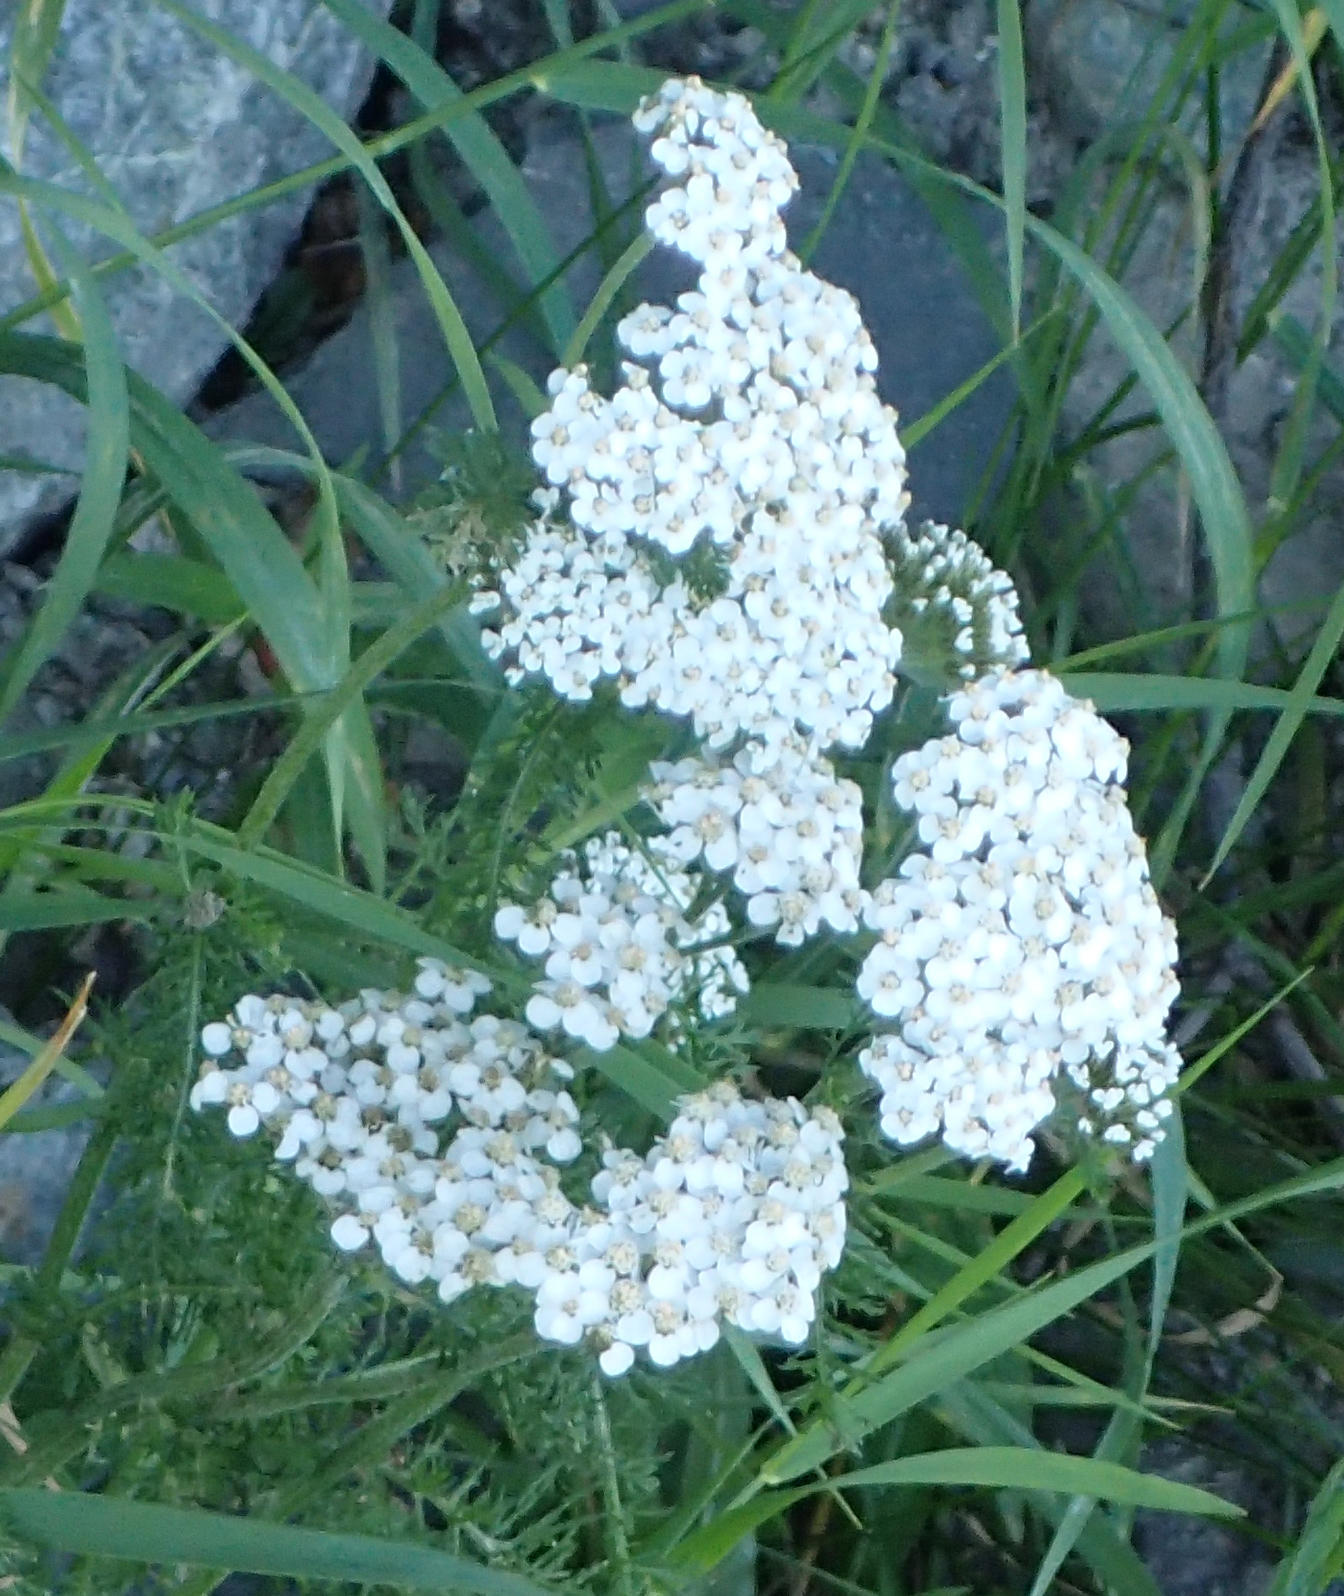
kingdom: Plantae
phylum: Tracheophyta
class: Magnoliopsida
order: Asterales
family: Asteraceae
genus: Achillea
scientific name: Achillea millefolium
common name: Yarrow
